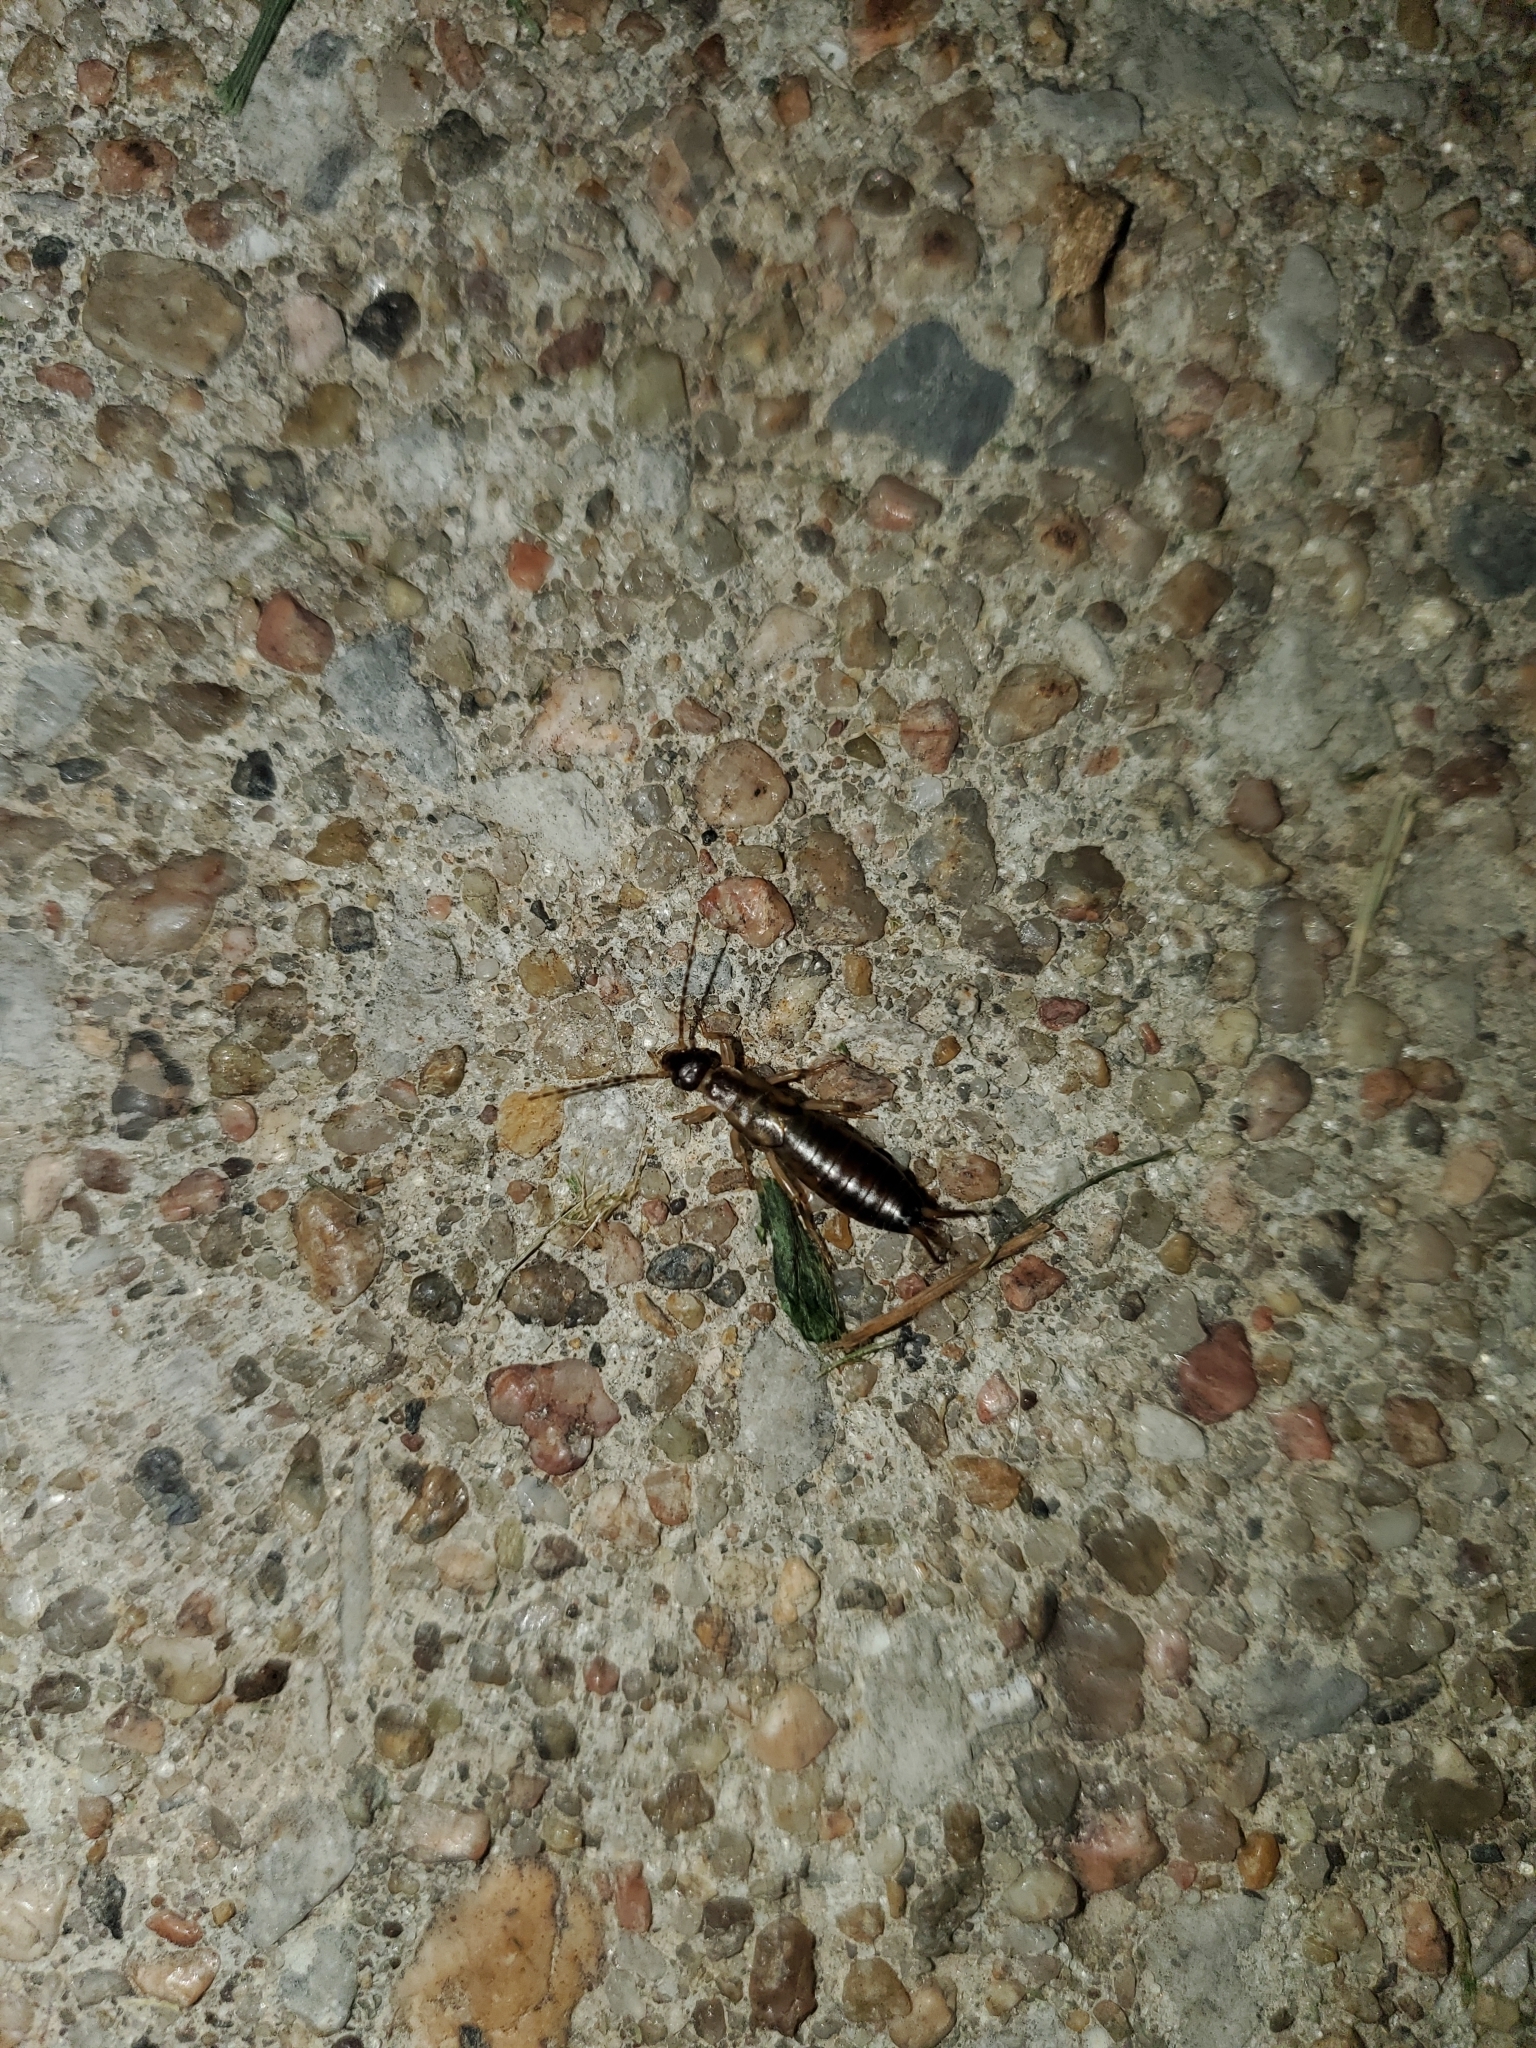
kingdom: Animalia
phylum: Arthropoda
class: Insecta
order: Dermaptera
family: Forficulidae
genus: Forficula
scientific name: Forficula
